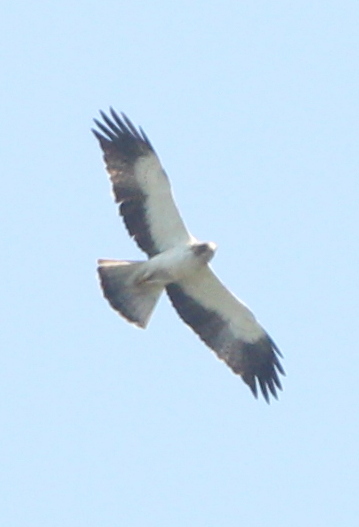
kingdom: Animalia
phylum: Chordata
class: Aves
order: Accipitriformes
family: Accipitridae
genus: Hieraaetus
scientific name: Hieraaetus pennatus
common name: Booted eagle
